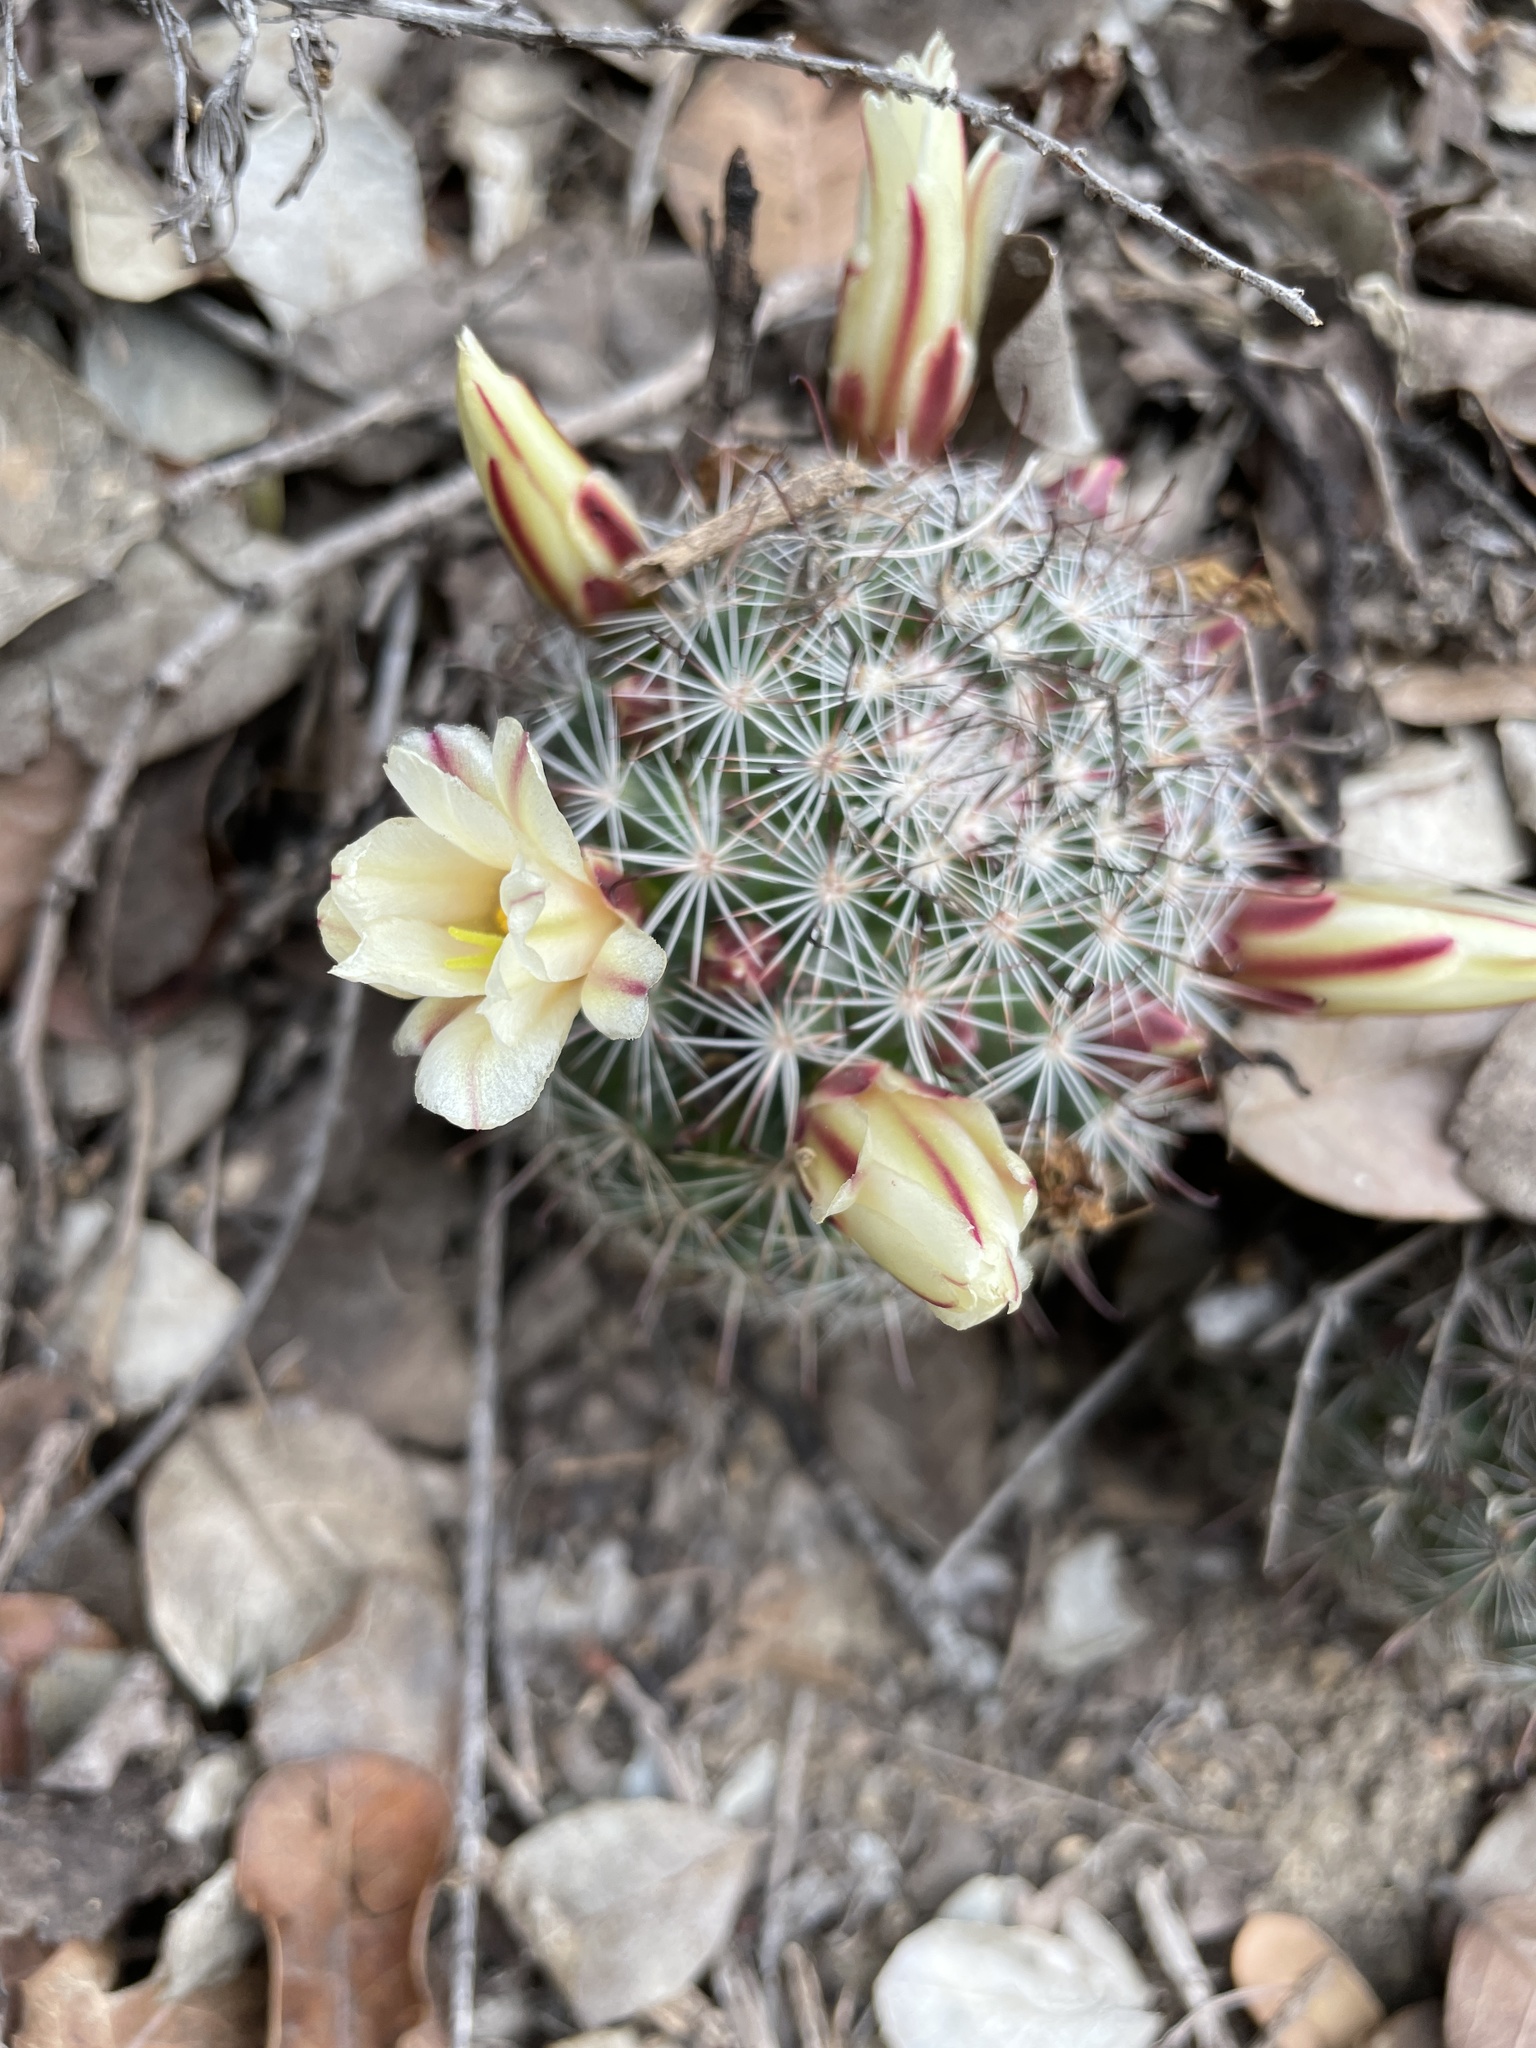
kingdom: Plantae
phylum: Tracheophyta
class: Magnoliopsida
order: Caryophyllales
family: Cactaceae
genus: Cochemiea
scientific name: Cochemiea dioica
